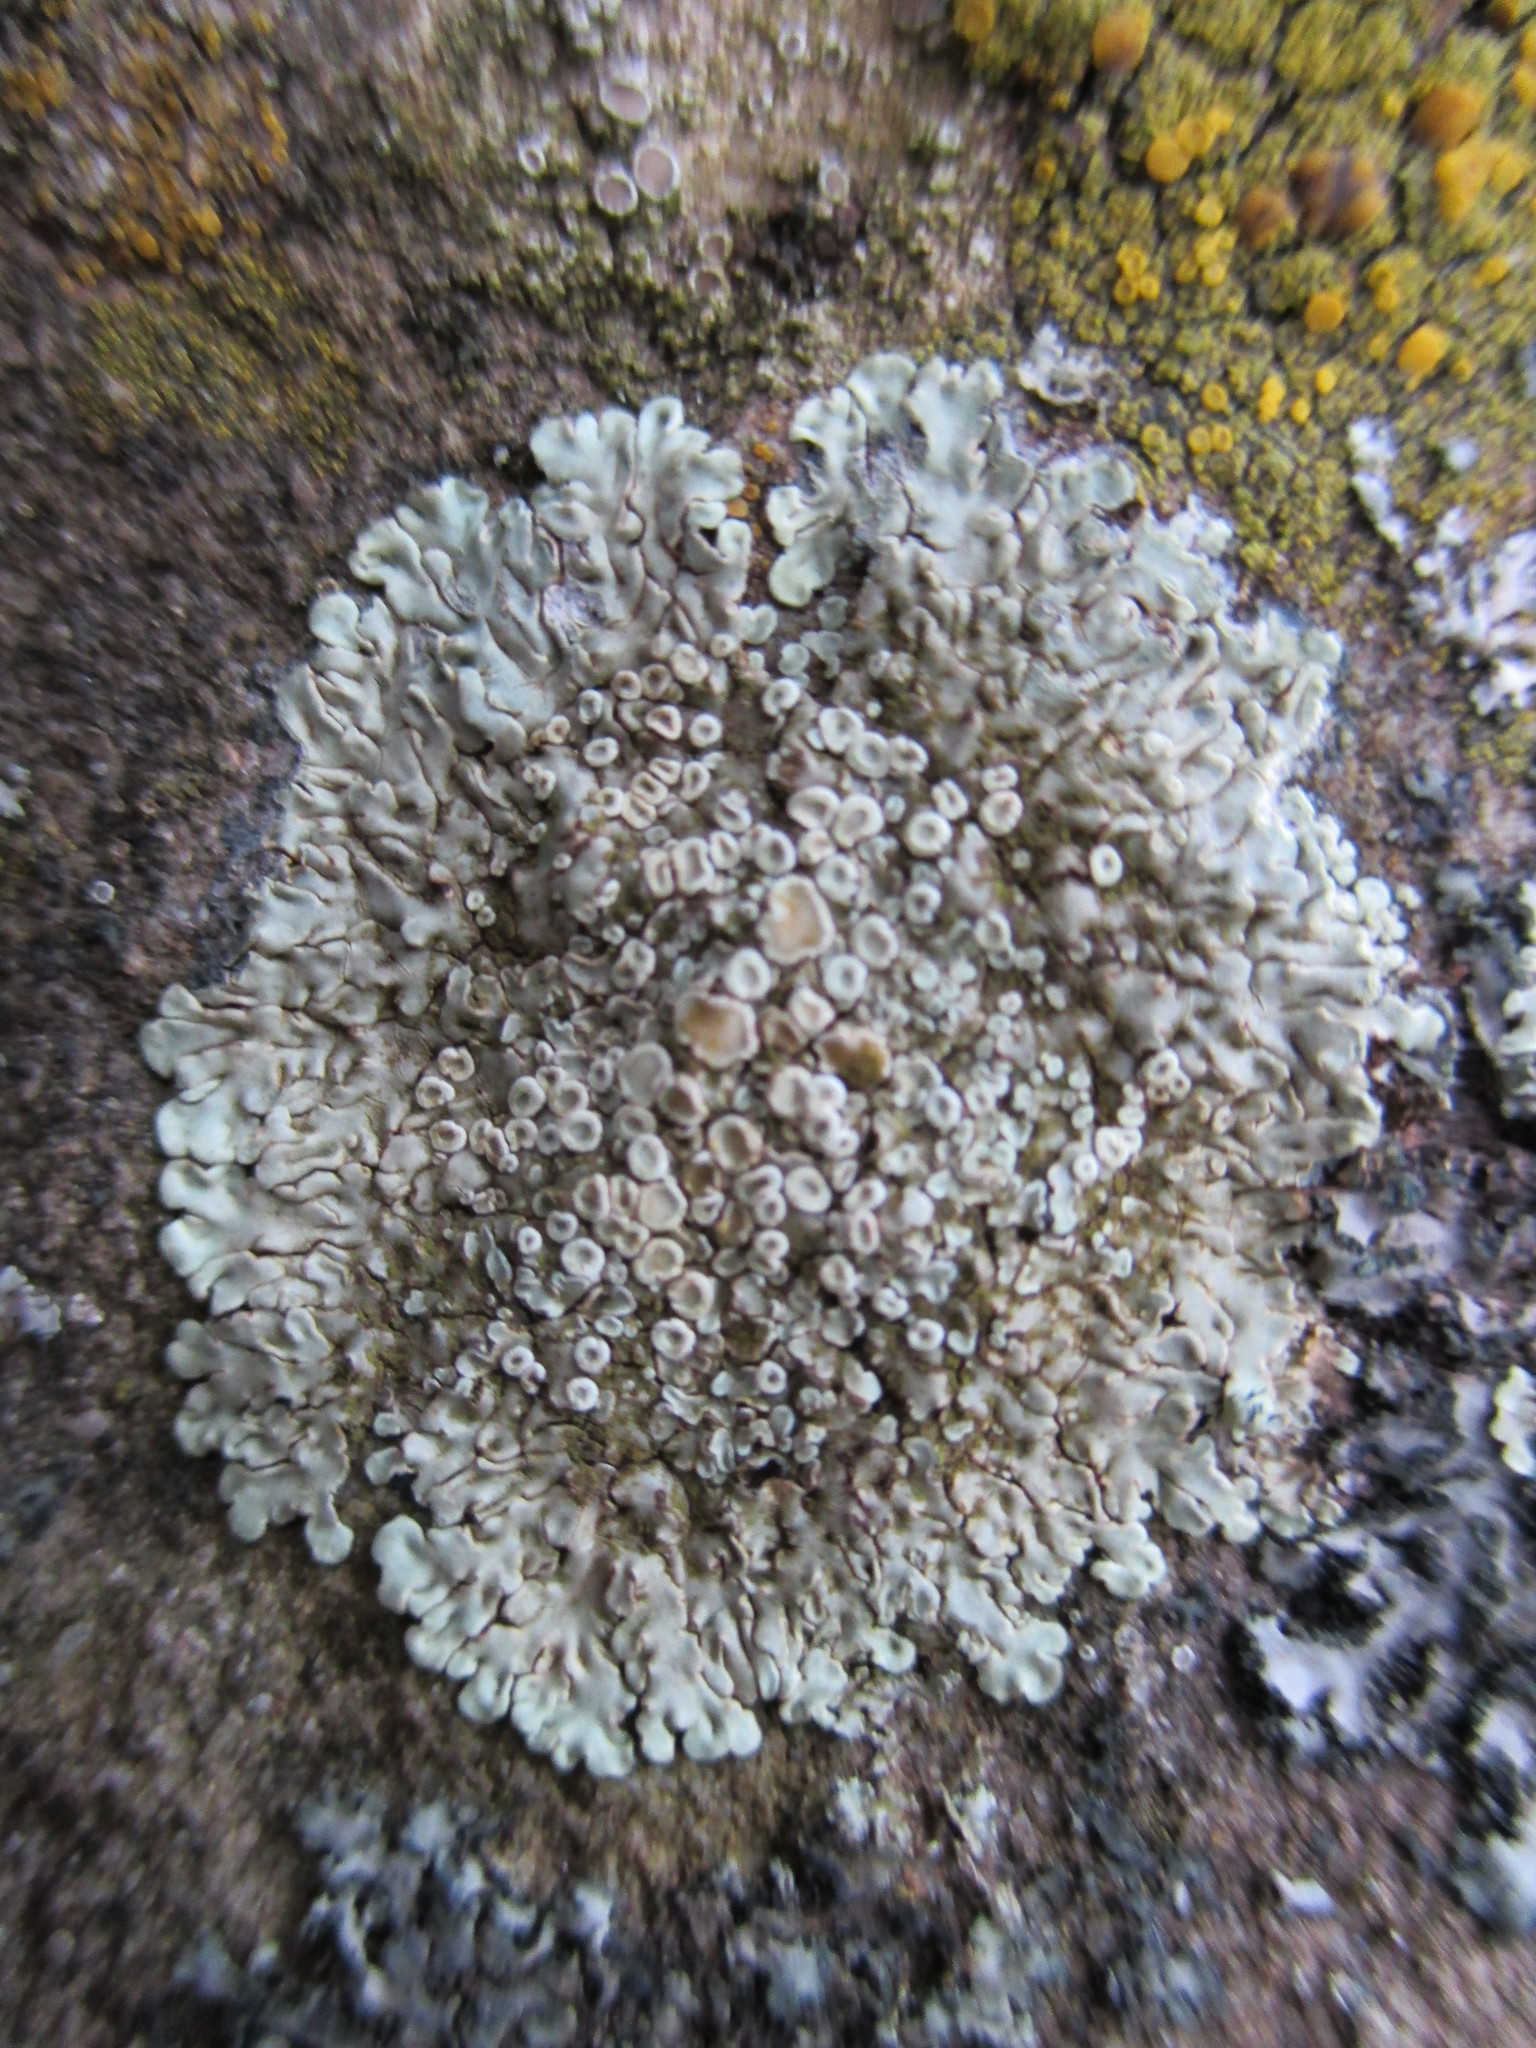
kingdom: Fungi
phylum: Ascomycota
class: Lecanoromycetes
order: Lecanorales
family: Lecanoraceae
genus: Protoparmeliopsis
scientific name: Protoparmeliopsis muralis
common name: Stonewall rim lichen
